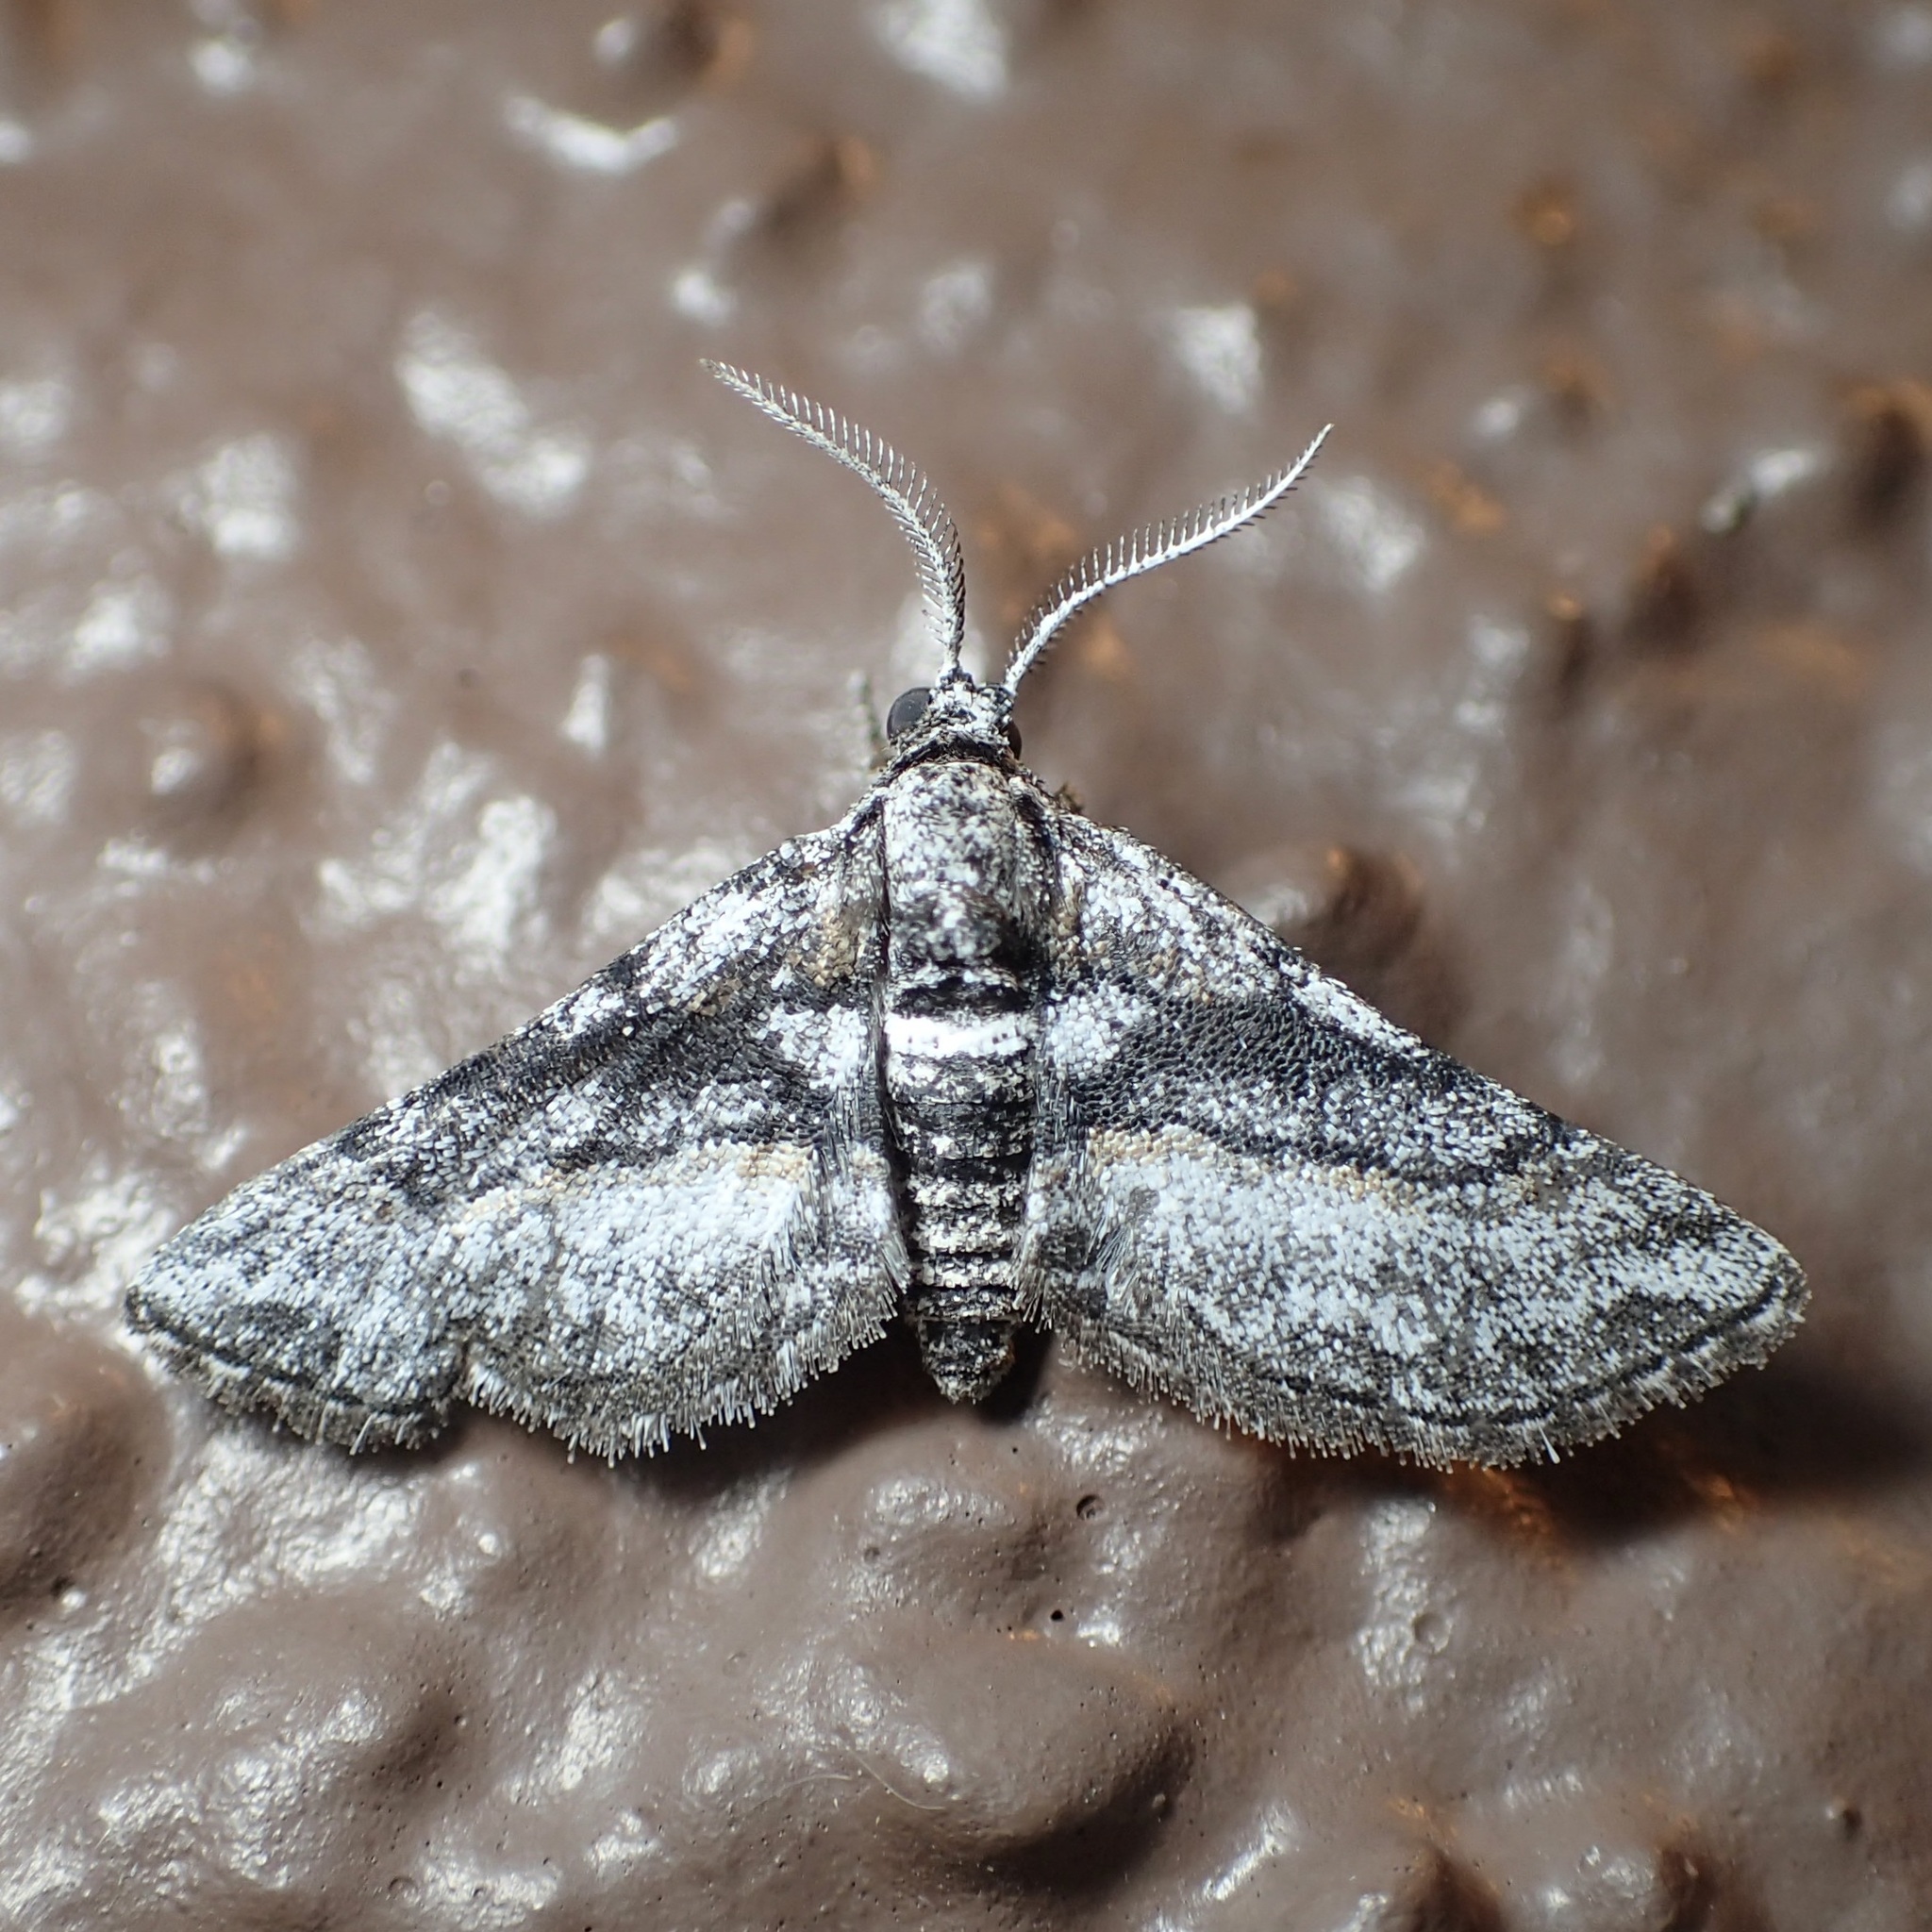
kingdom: Animalia
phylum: Arthropoda
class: Insecta
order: Lepidoptera
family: Geometridae
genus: Eubarnesia
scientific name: Eubarnesia ritaria
